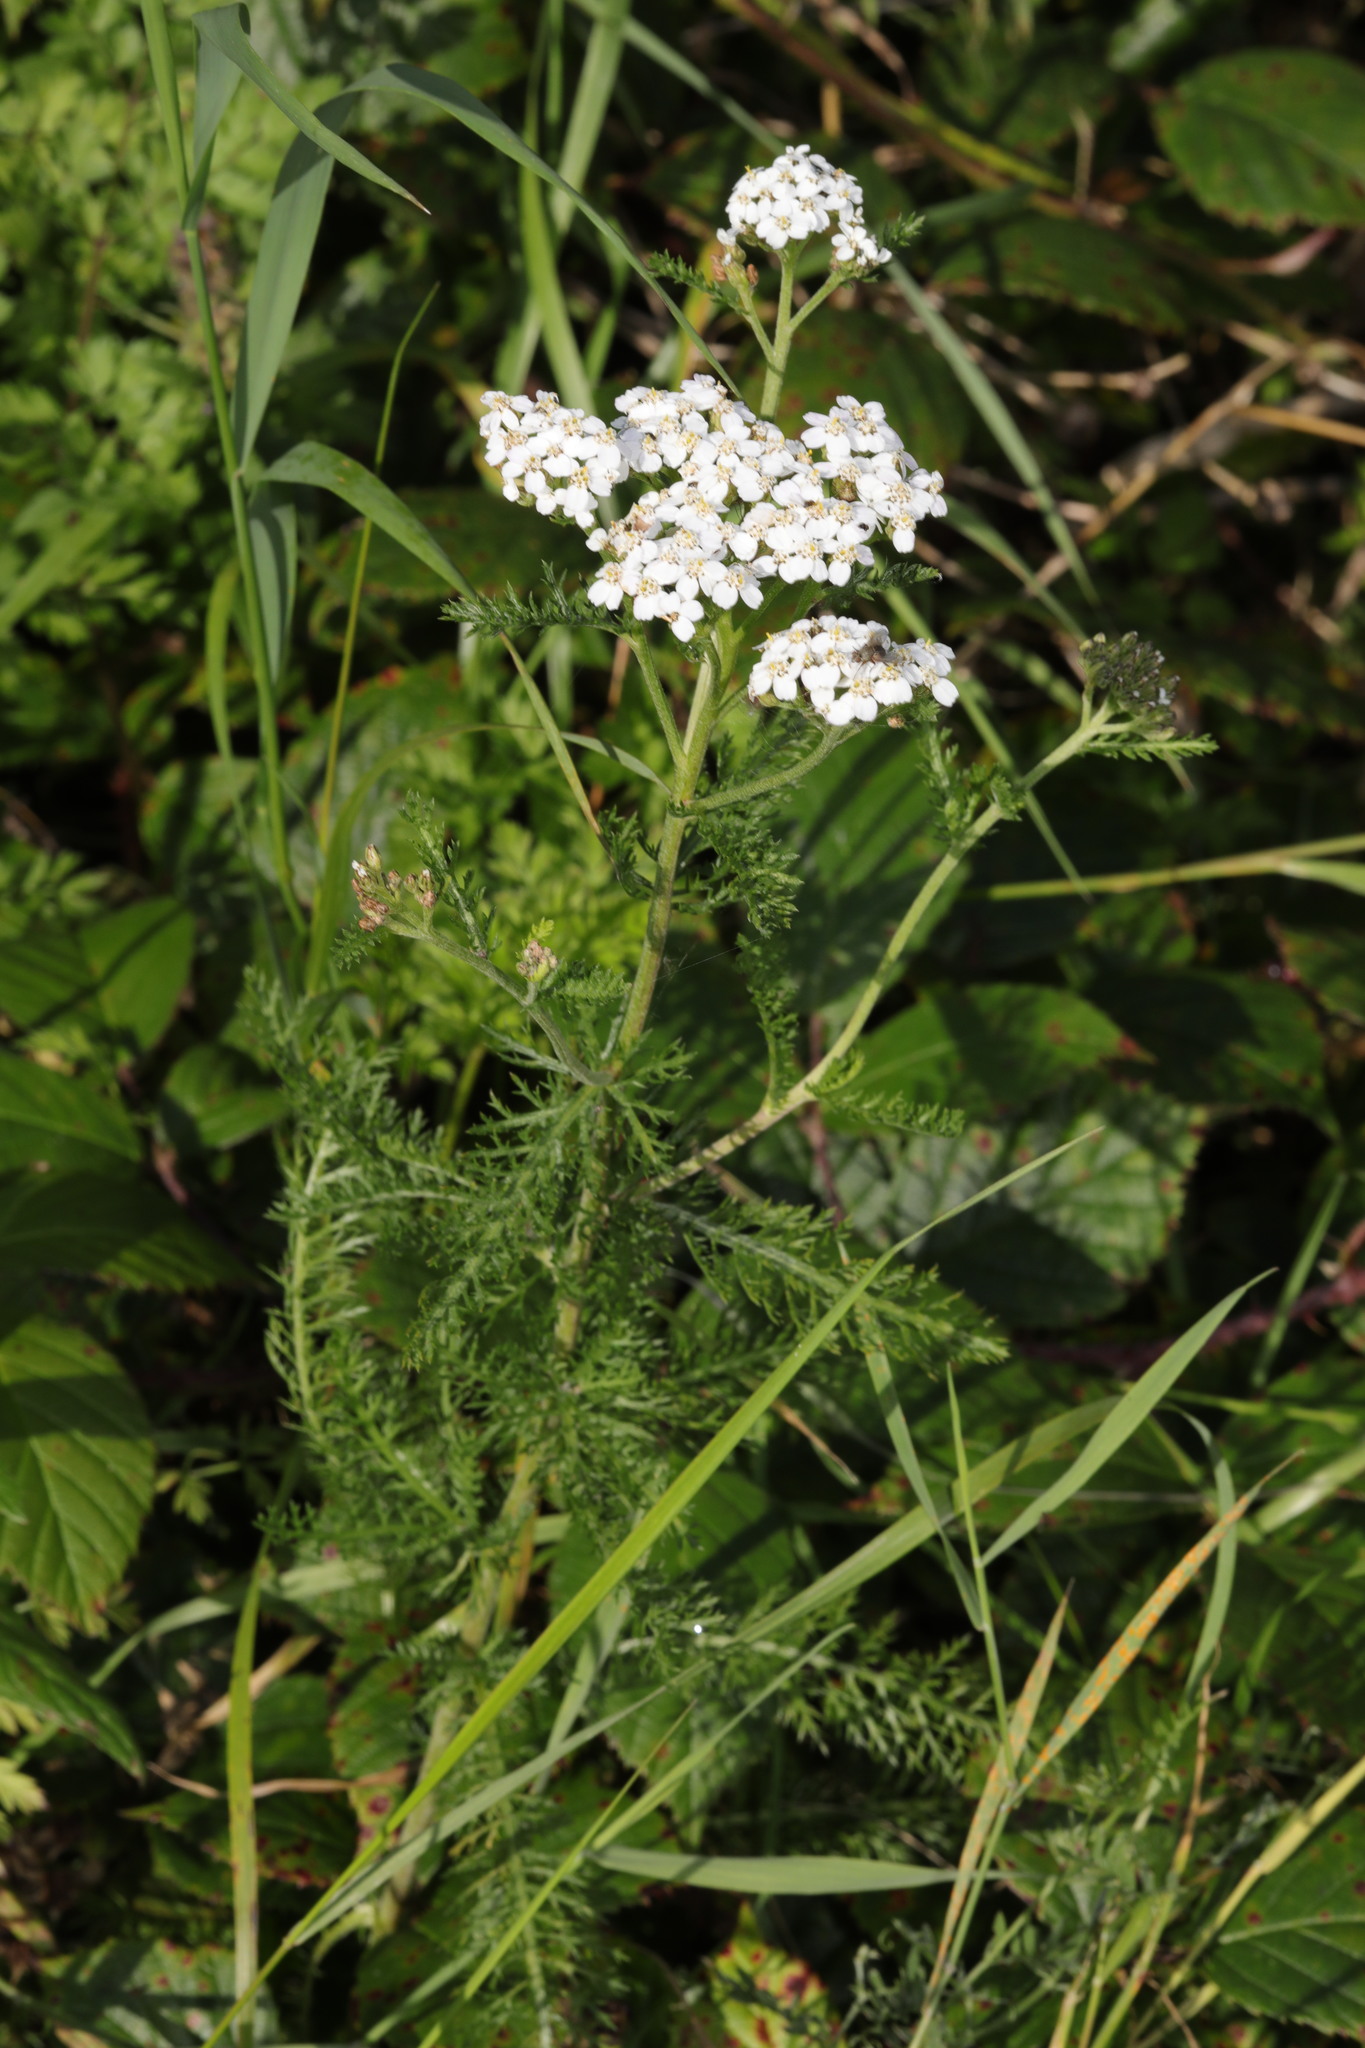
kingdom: Plantae
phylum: Tracheophyta
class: Magnoliopsida
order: Asterales
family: Asteraceae
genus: Achillea
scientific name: Achillea millefolium
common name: Yarrow
